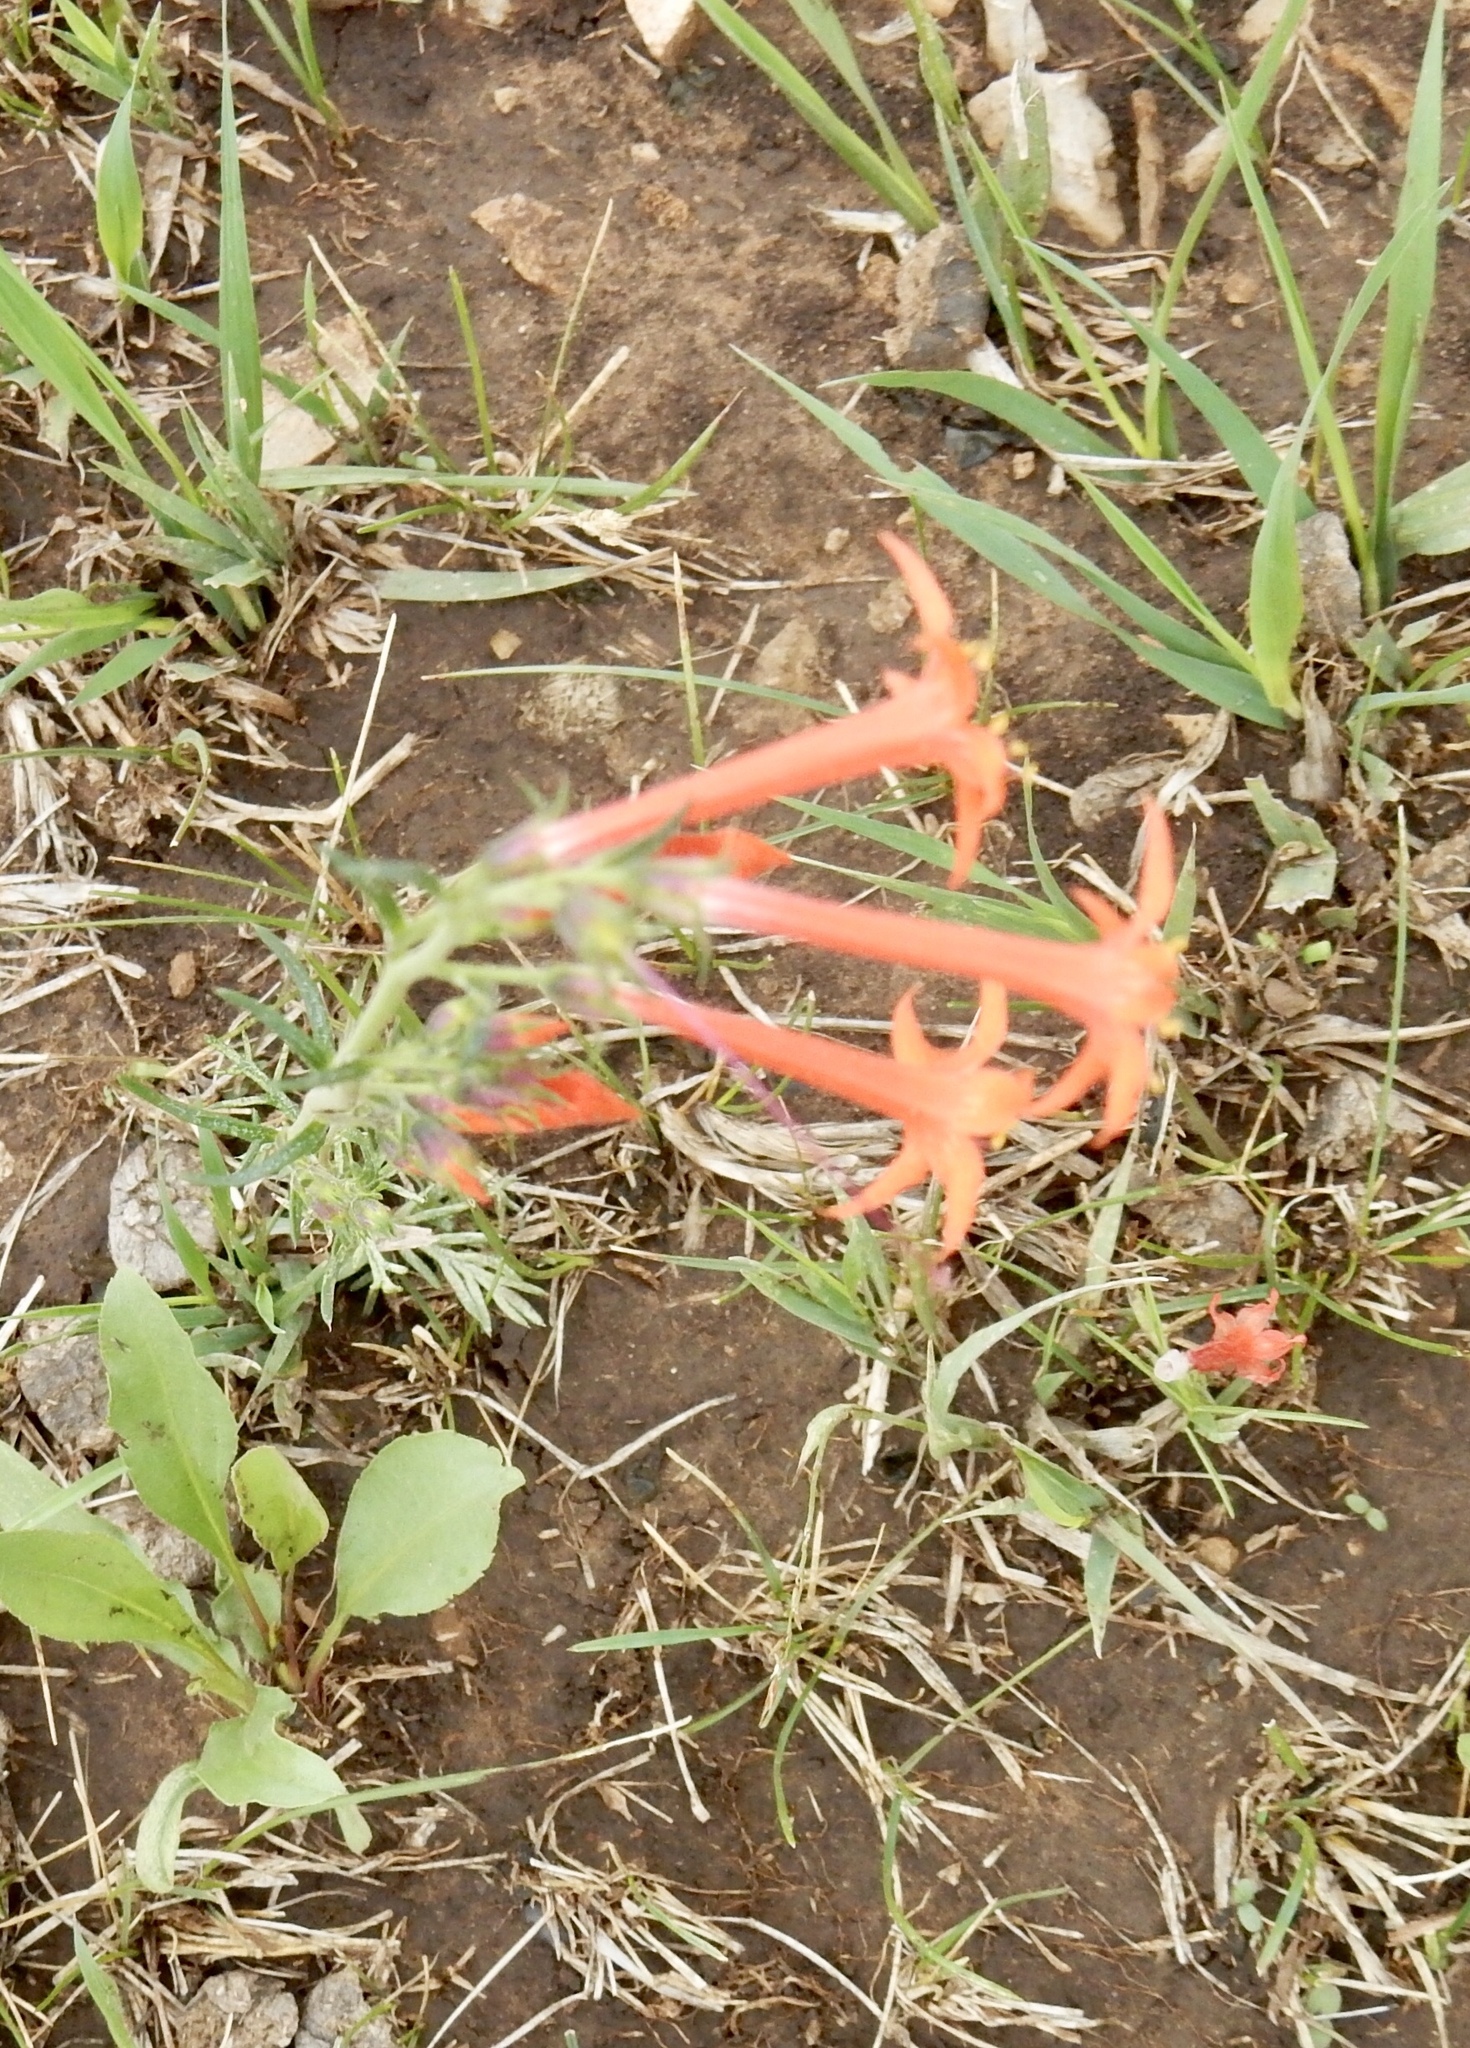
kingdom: Plantae
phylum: Tracheophyta
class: Magnoliopsida
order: Ericales
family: Polemoniaceae
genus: Ipomopsis
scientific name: Ipomopsis aggregata
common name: Scarlet gilia
